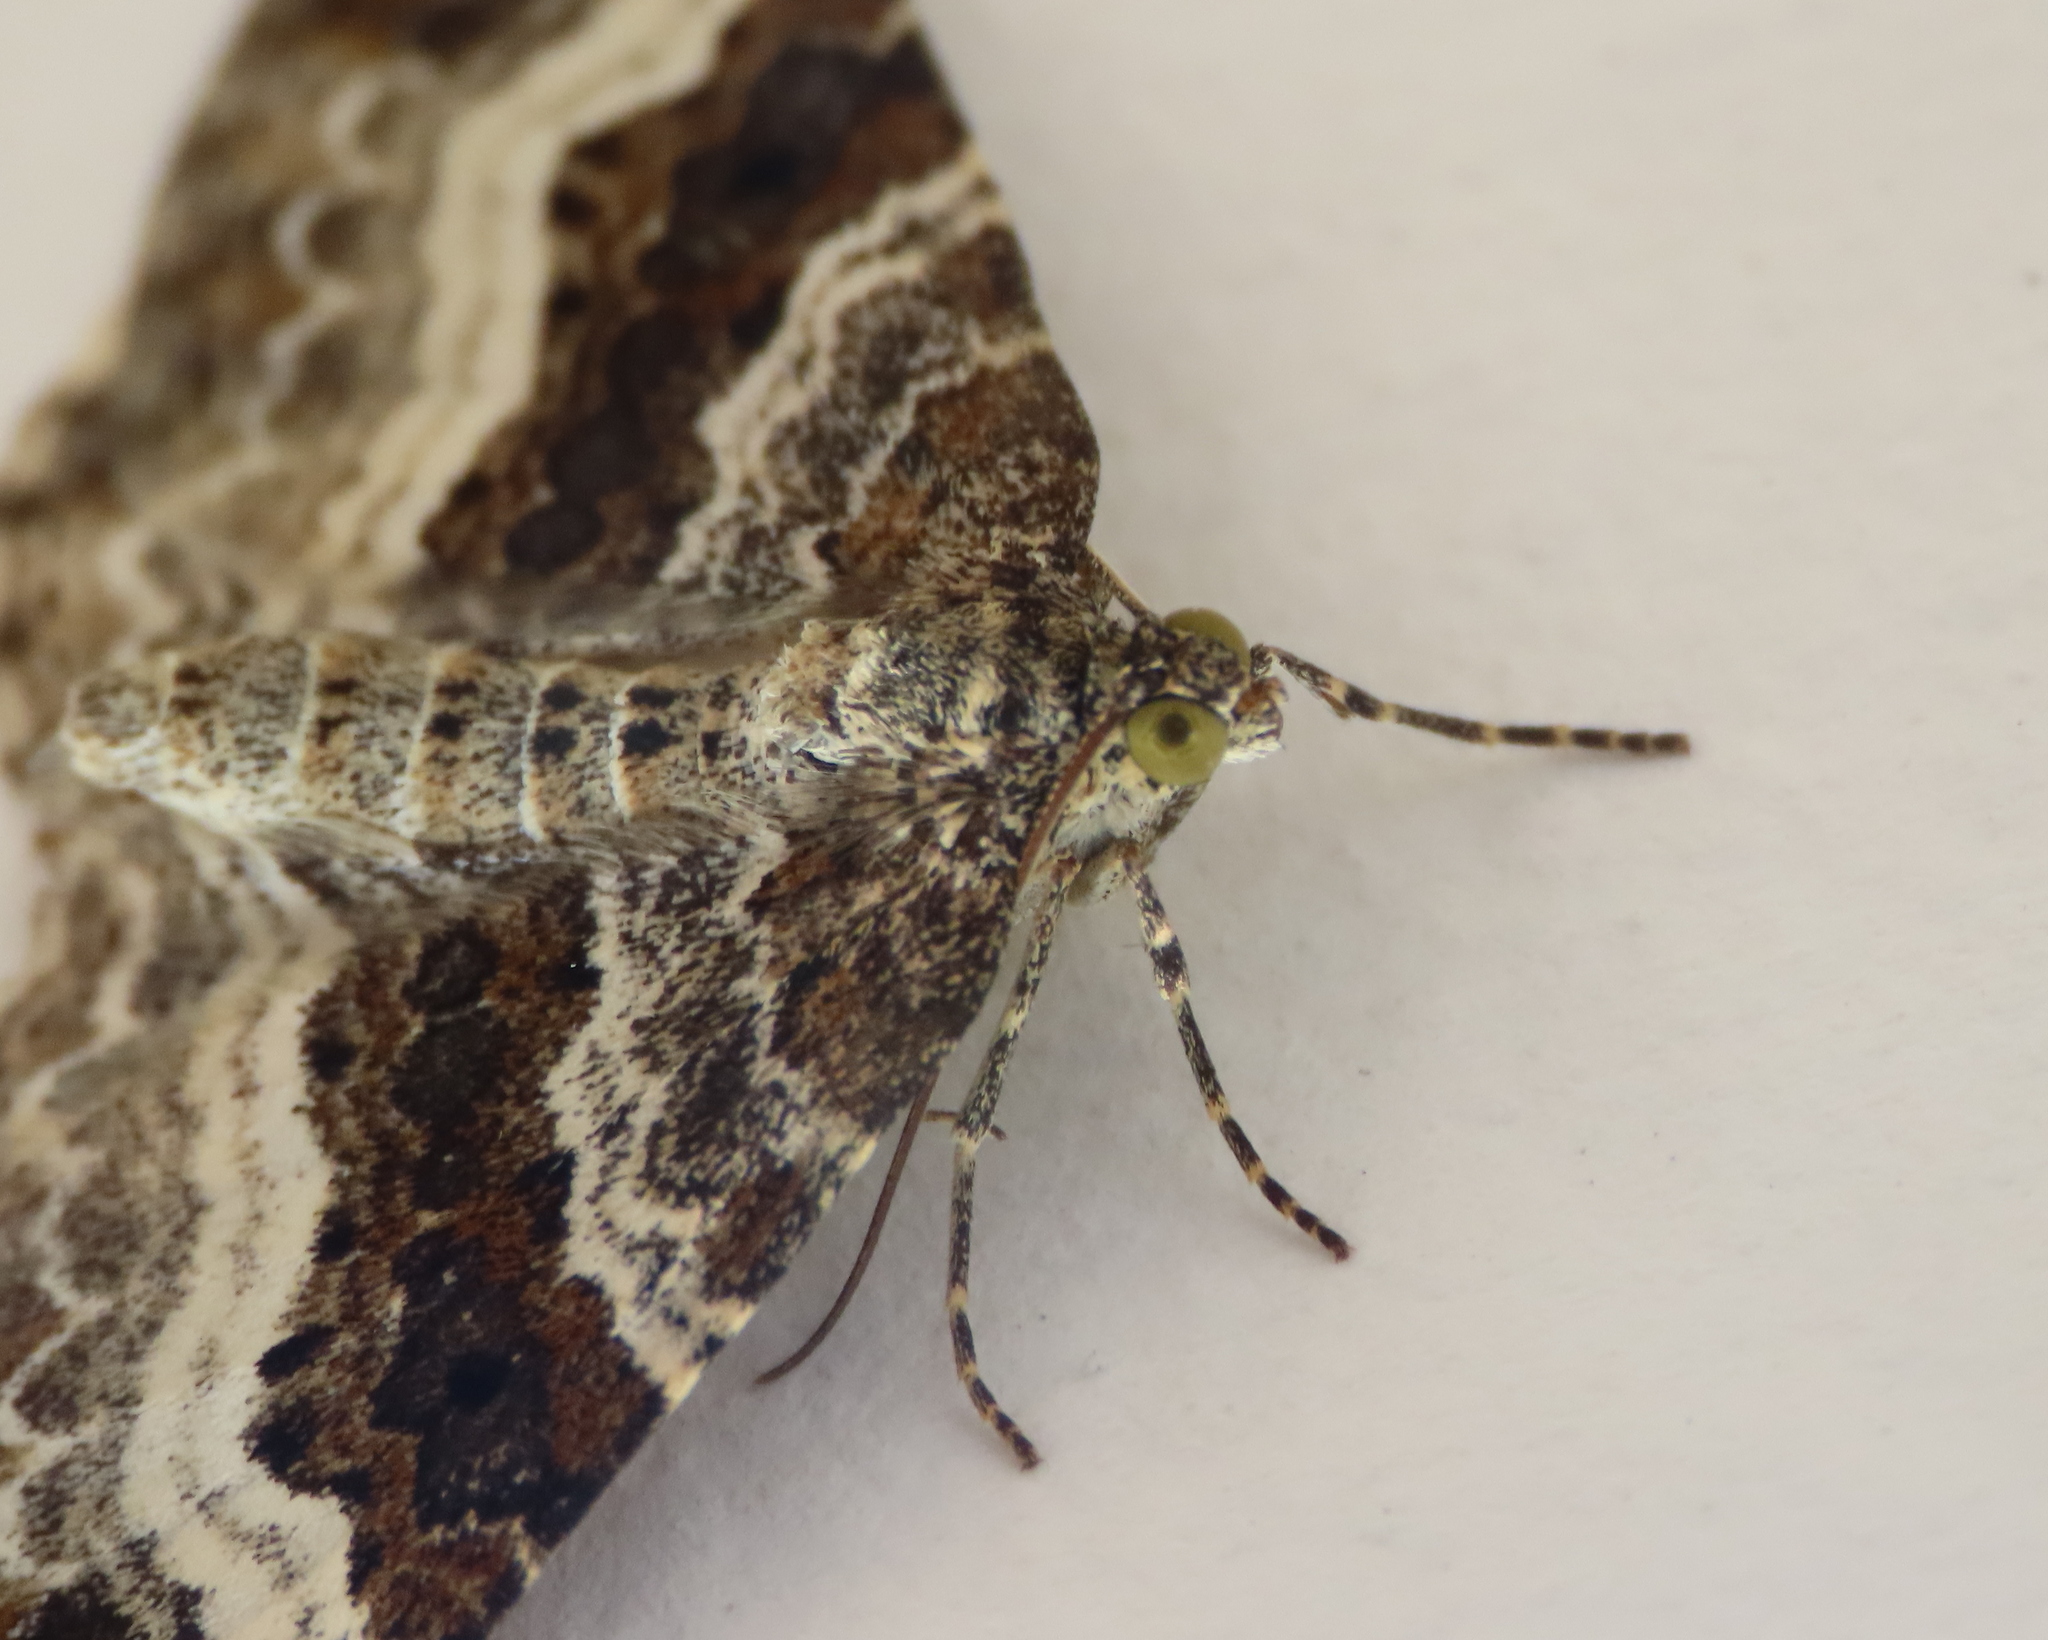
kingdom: Animalia
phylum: Arthropoda
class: Insecta
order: Lepidoptera
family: Geometridae
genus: Epirrhoe
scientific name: Epirrhoe alternata
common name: Common carpet
